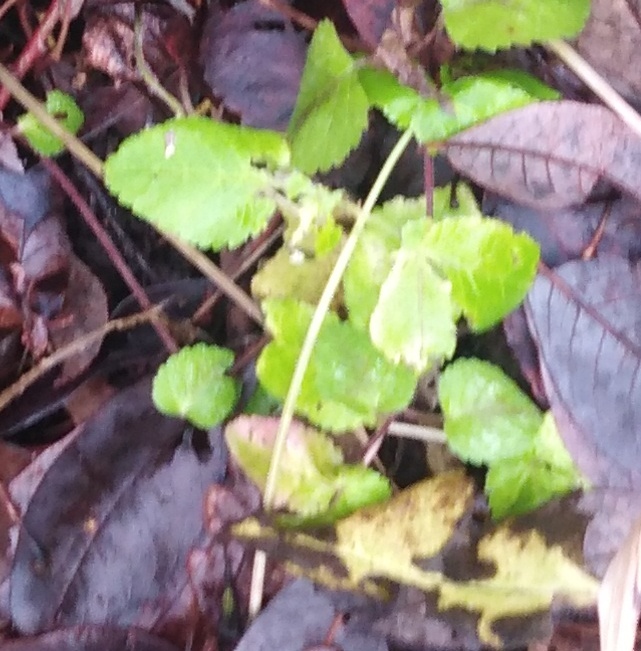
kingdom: Plantae
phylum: Tracheophyta
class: Magnoliopsida
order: Lamiales
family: Lamiaceae
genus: Lamium
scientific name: Lamium galeobdolon
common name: Yellow archangel
